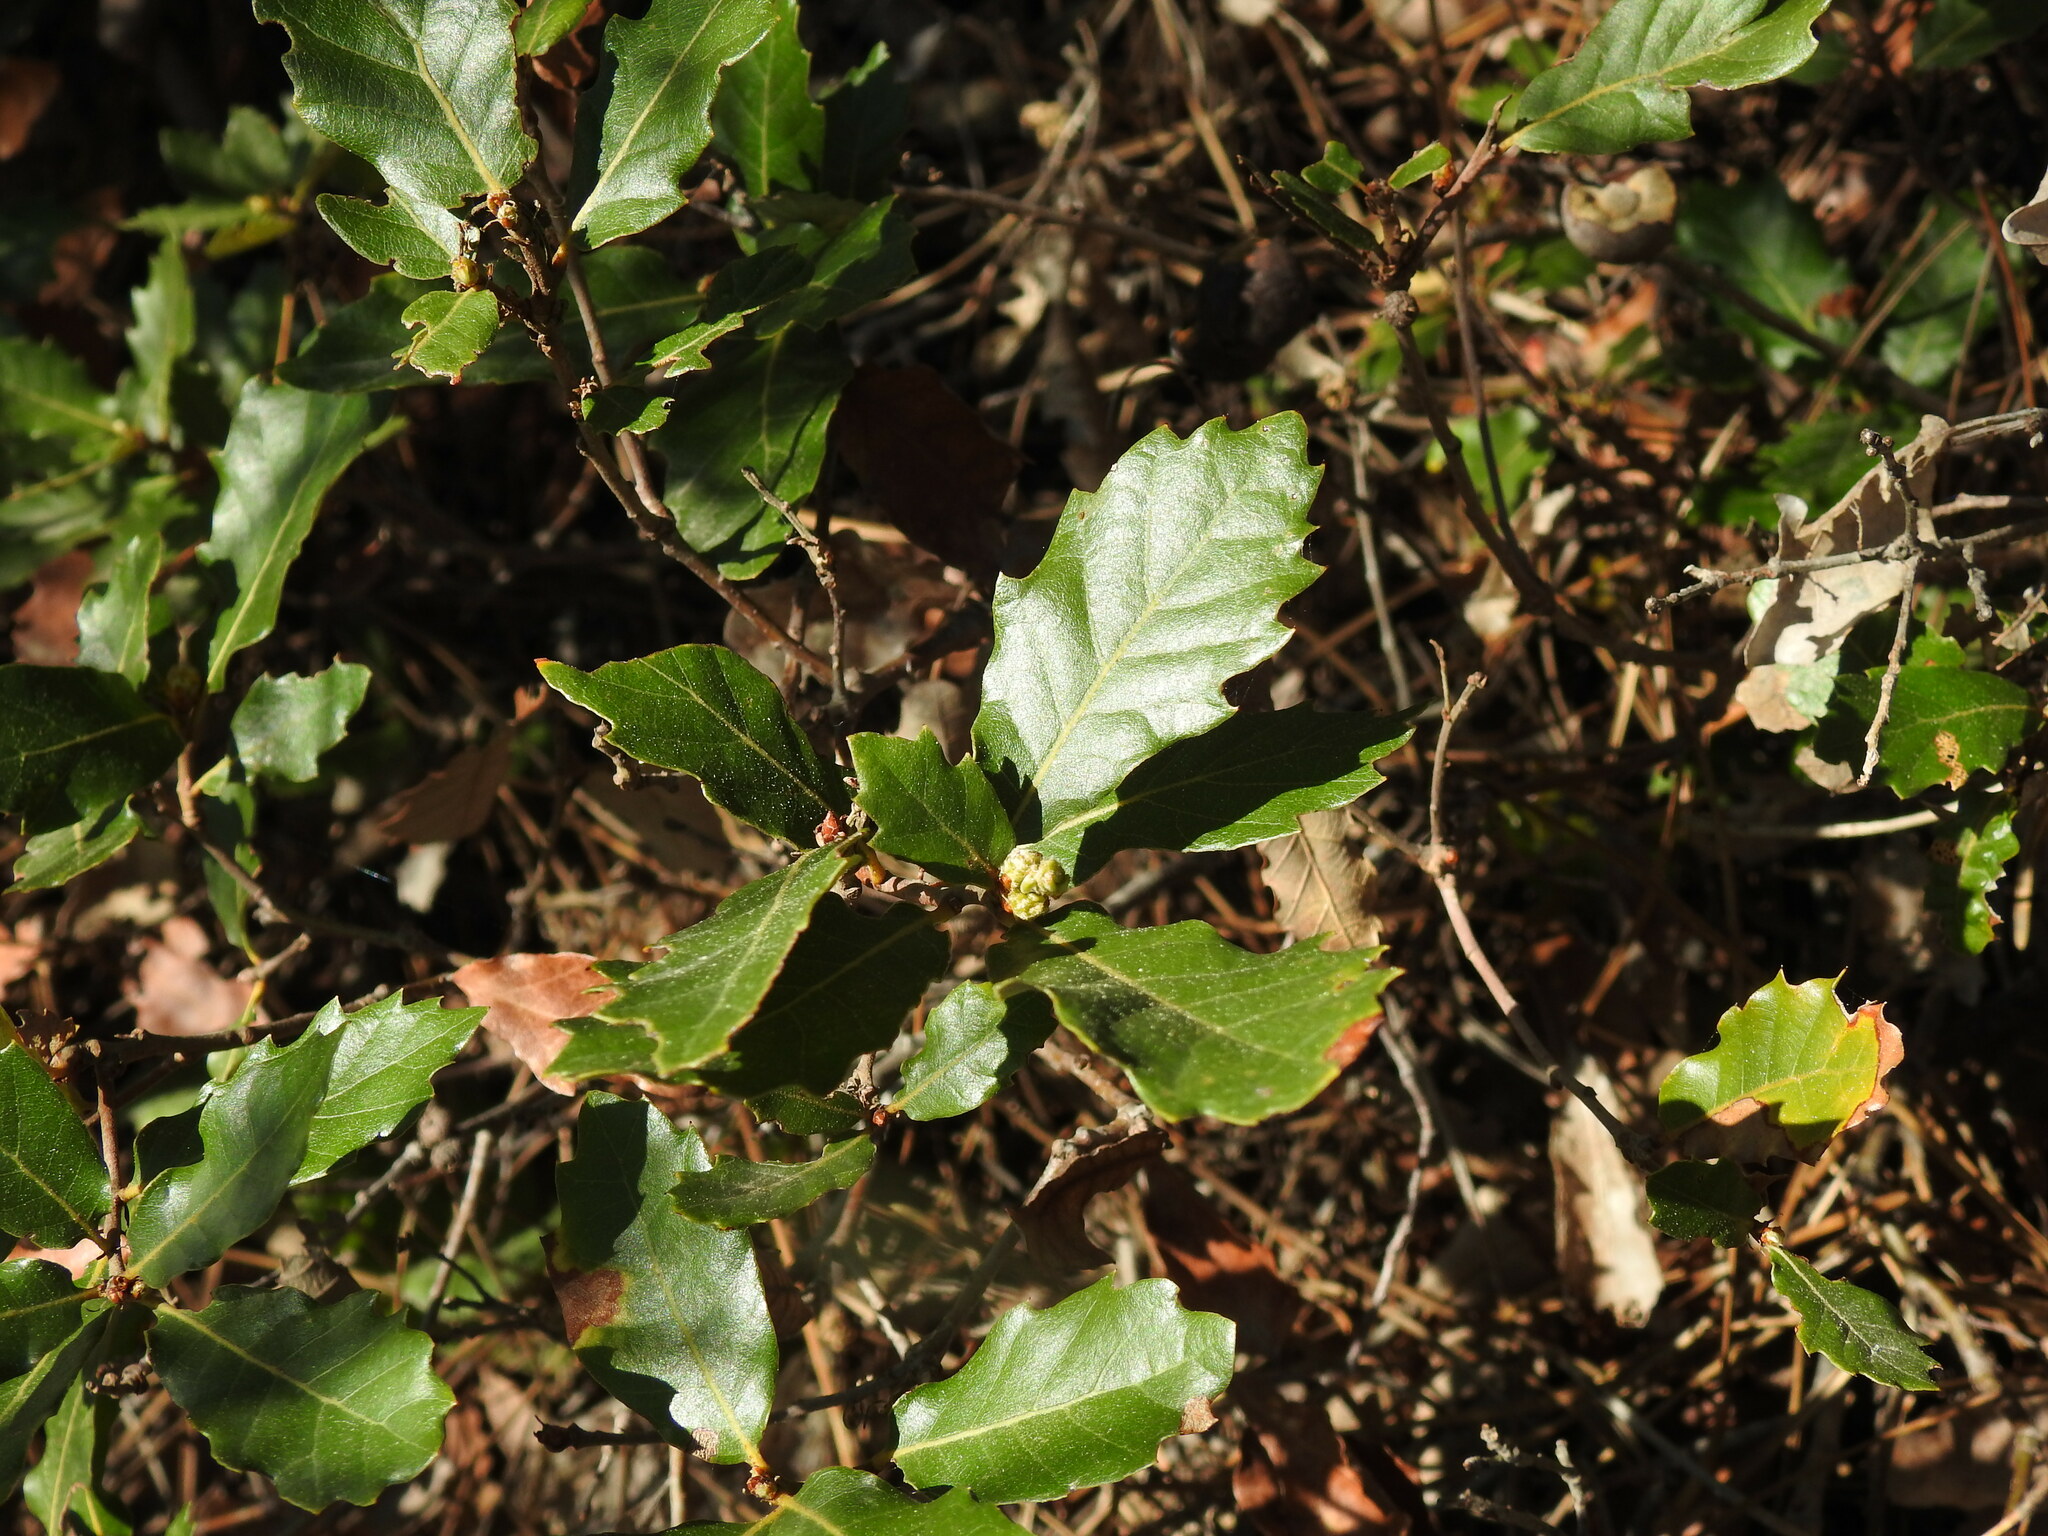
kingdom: Plantae
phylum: Tracheophyta
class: Magnoliopsida
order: Fagales
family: Fagaceae
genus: Quercus
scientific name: Quercus lusitanica
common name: Scrub gall oak
